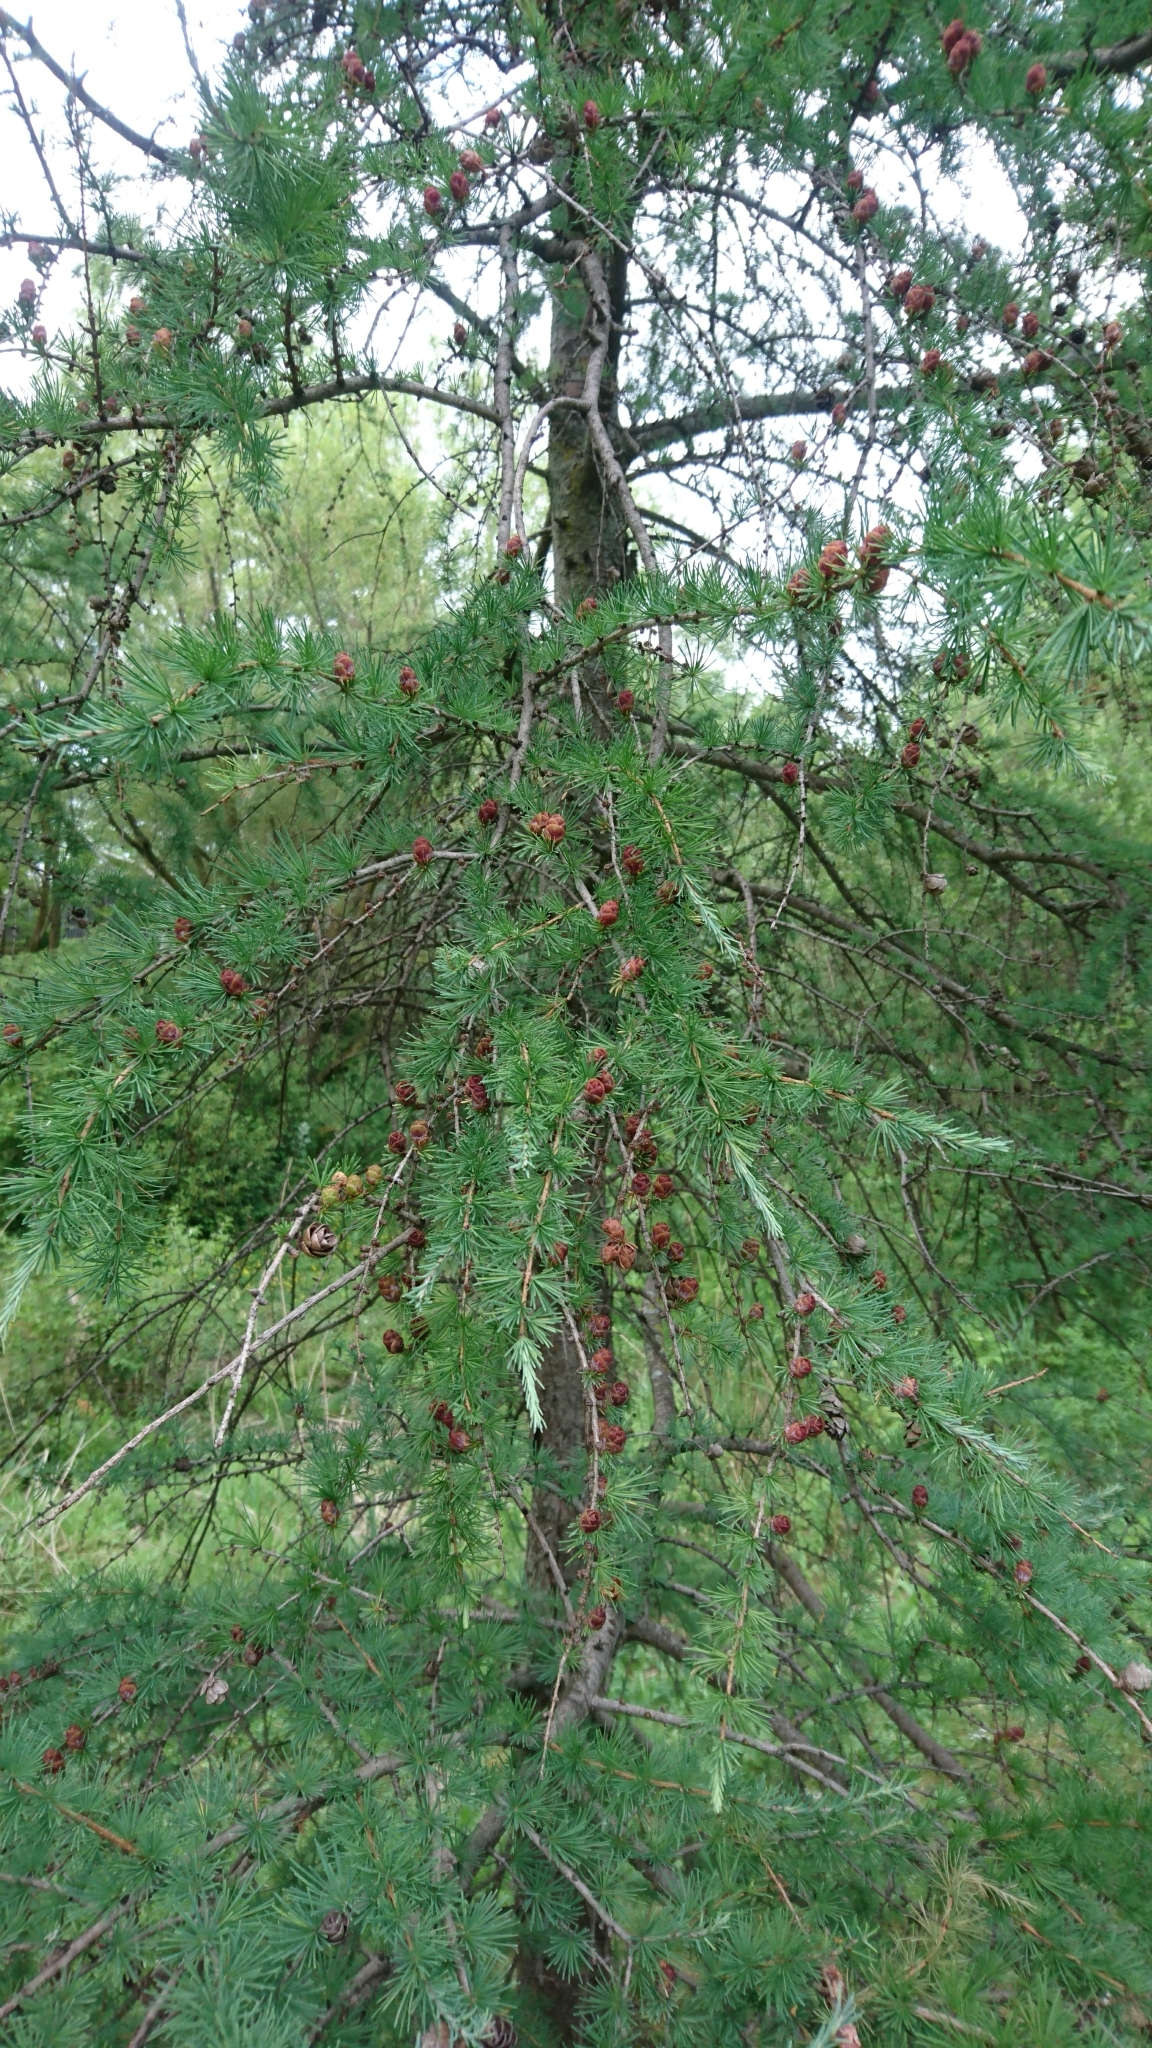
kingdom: Plantae
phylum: Tracheophyta
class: Pinopsida
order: Pinales
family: Pinaceae
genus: Larix
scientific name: Larix laricina
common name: American larch
